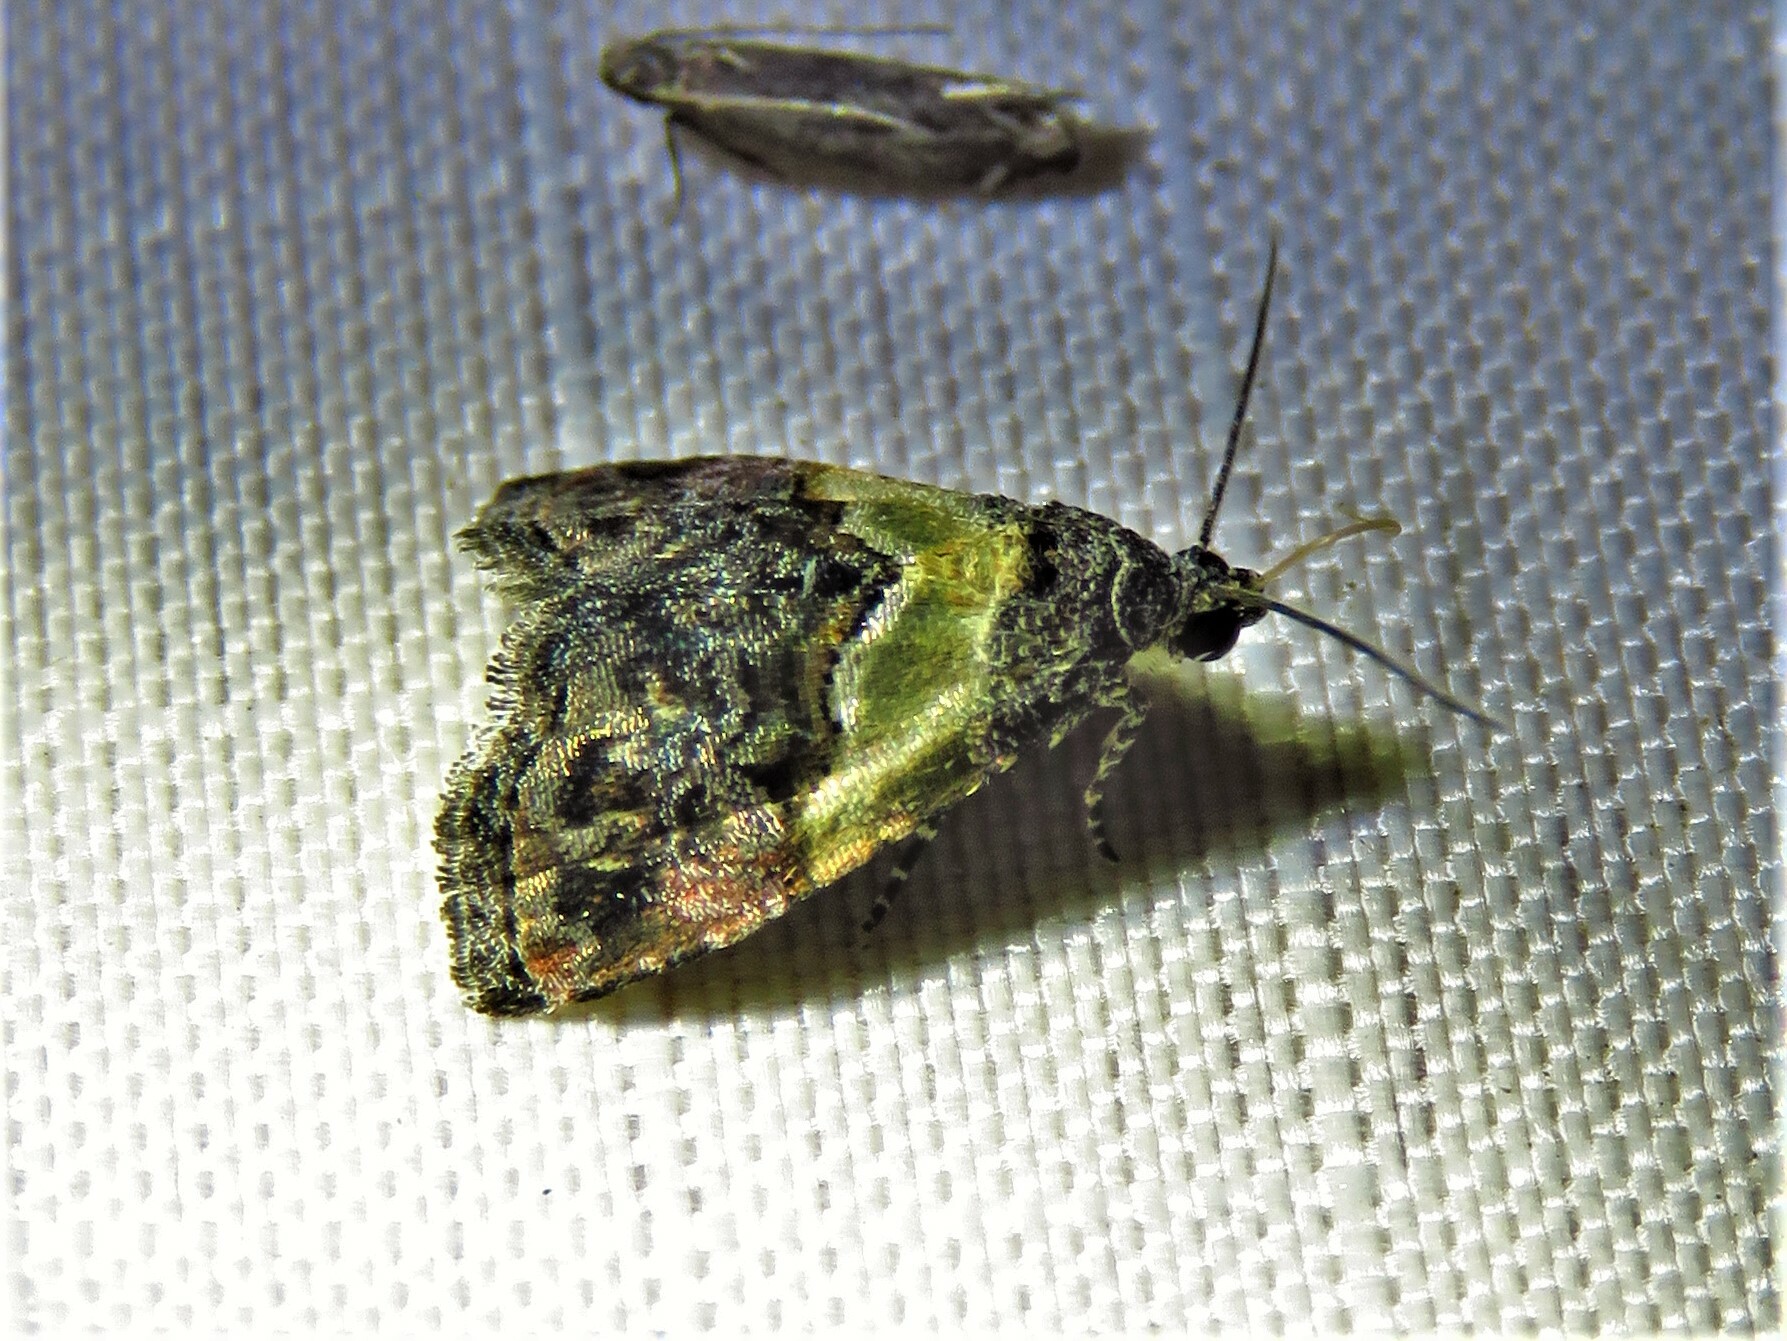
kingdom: Animalia
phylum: Arthropoda
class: Insecta
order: Lepidoptera
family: Noctuidae
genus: Tripudia
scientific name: Tripudia flavofasciata
